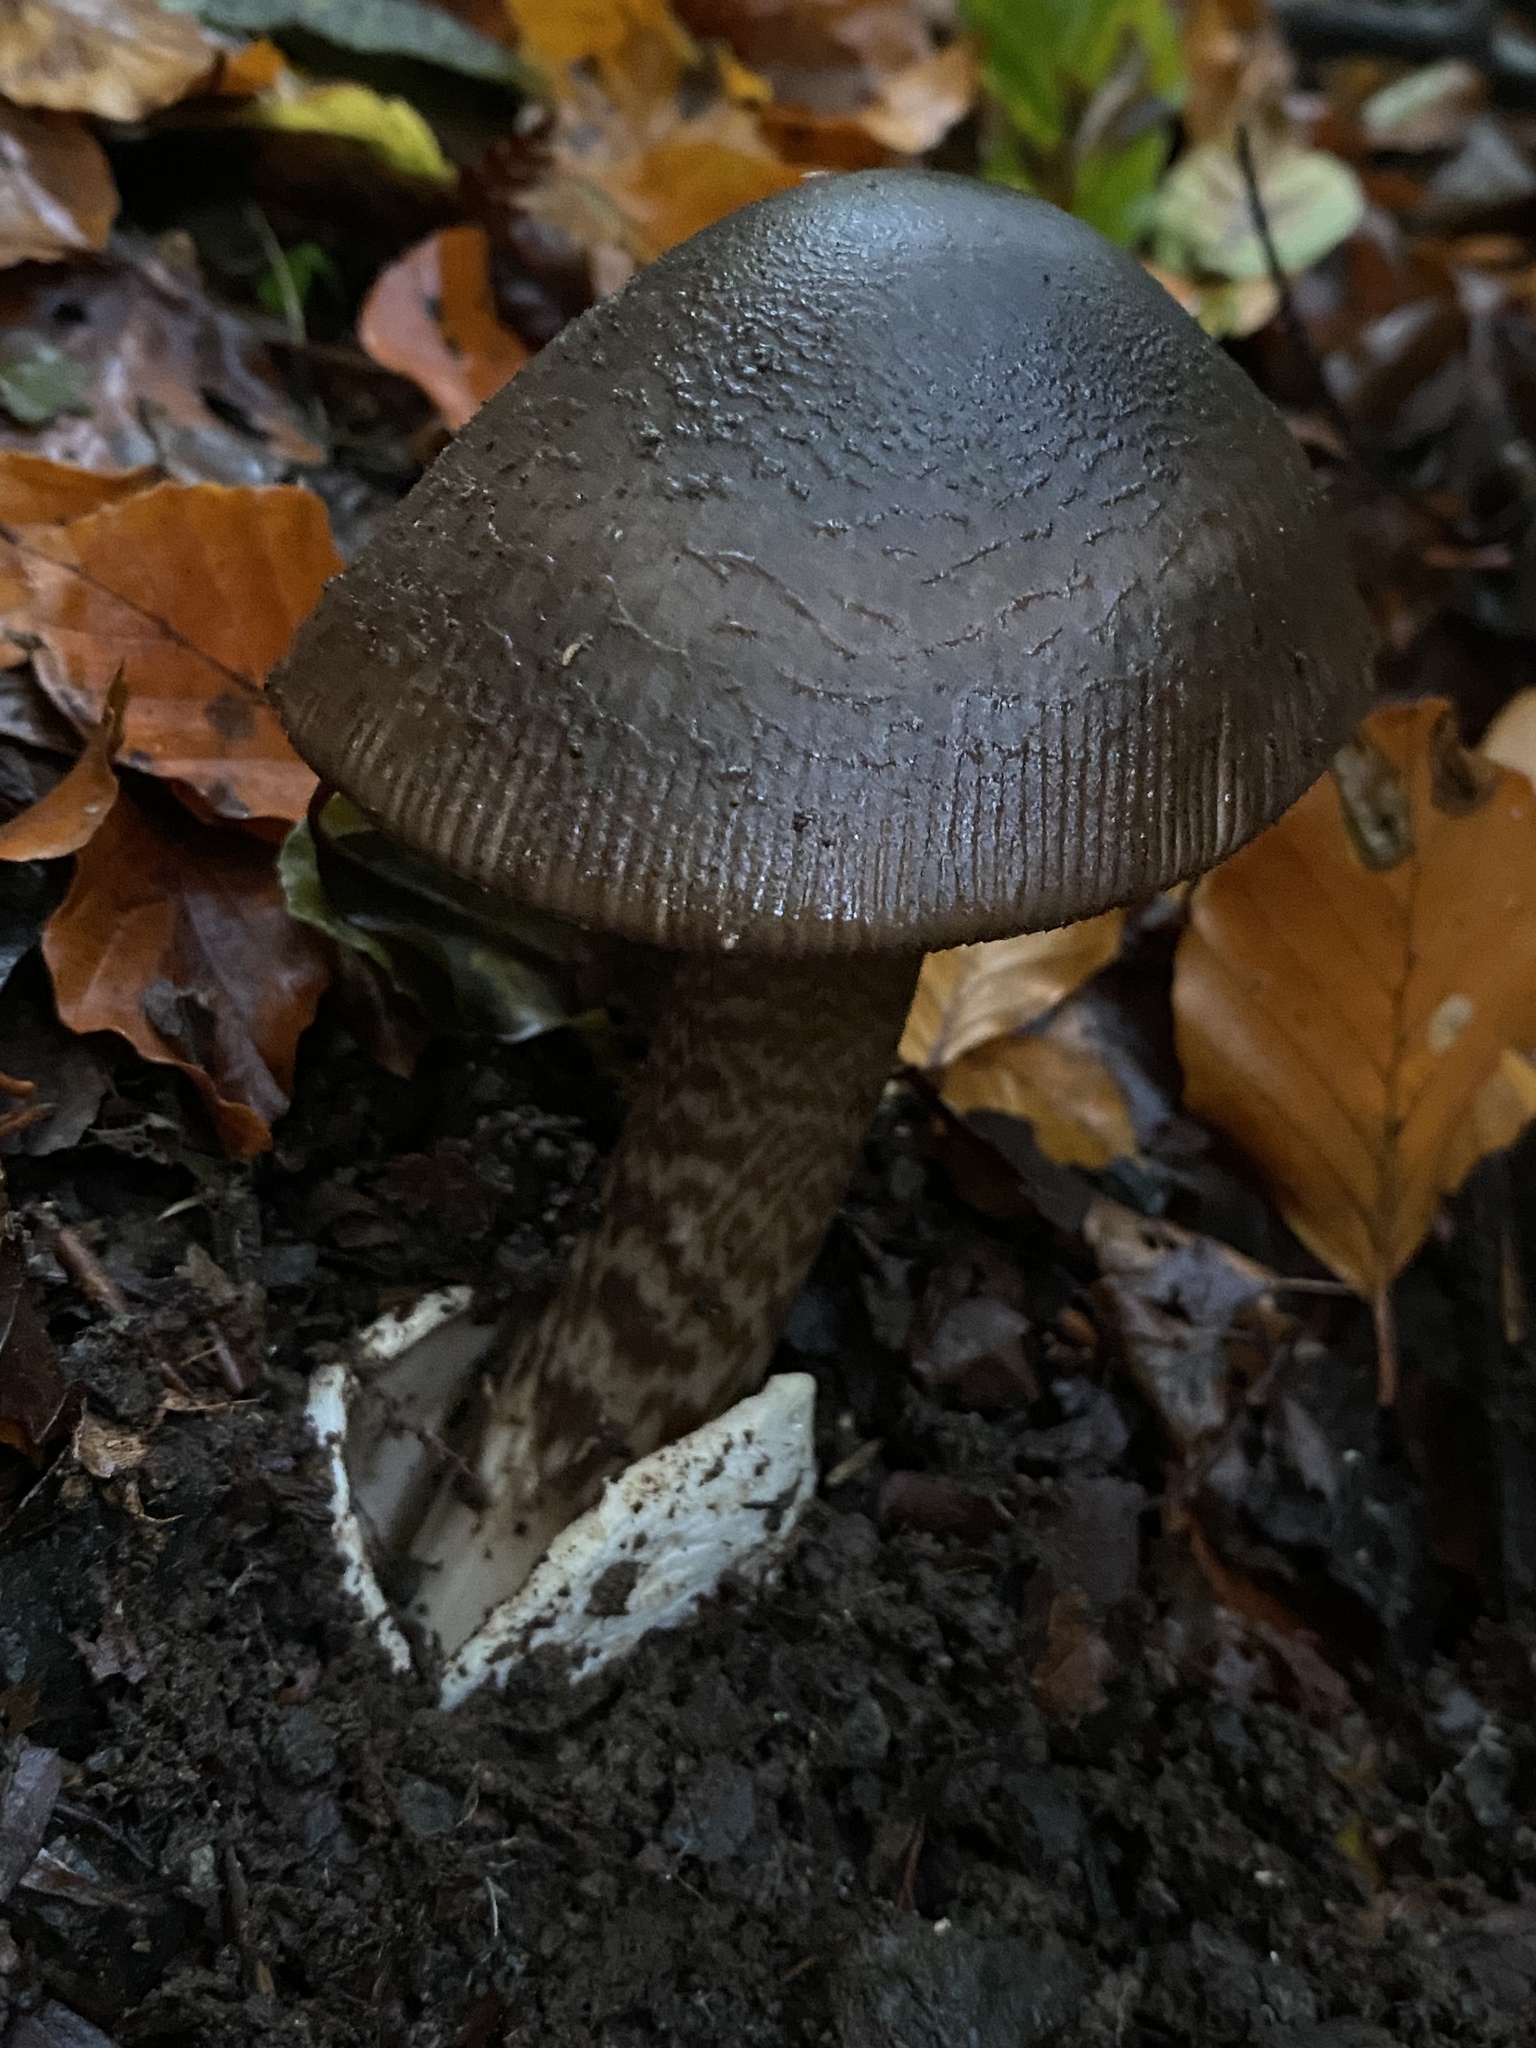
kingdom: Fungi
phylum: Basidiomycota
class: Agaricomycetes
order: Agaricales
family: Amanitaceae
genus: Amanita
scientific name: Amanita pekeoides
